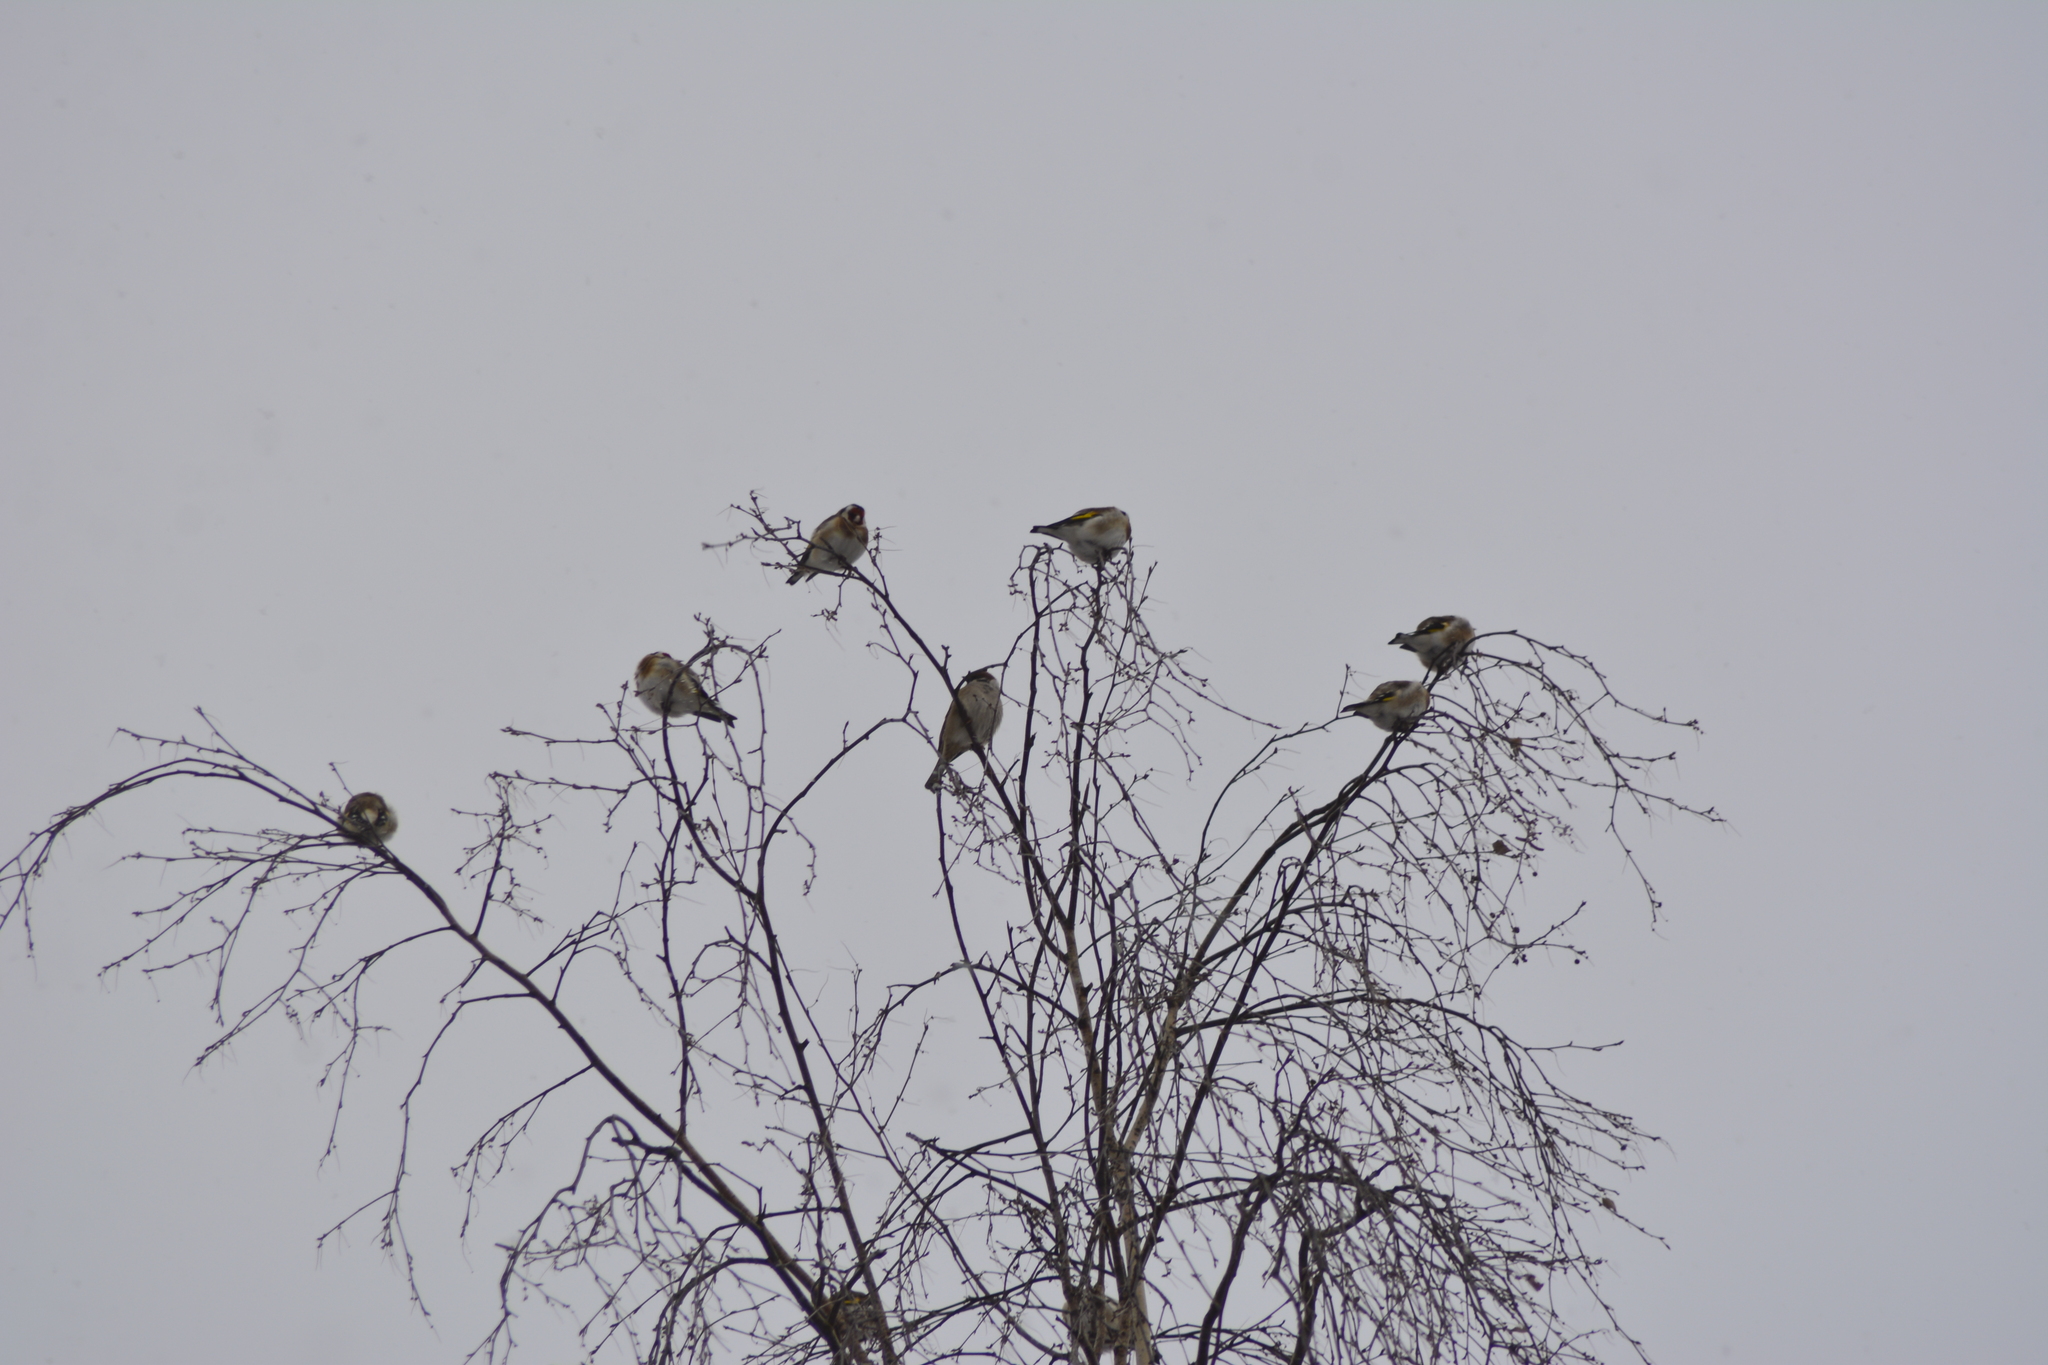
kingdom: Animalia
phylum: Chordata
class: Aves
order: Passeriformes
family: Fringillidae
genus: Carduelis
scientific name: Carduelis carduelis
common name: European goldfinch
